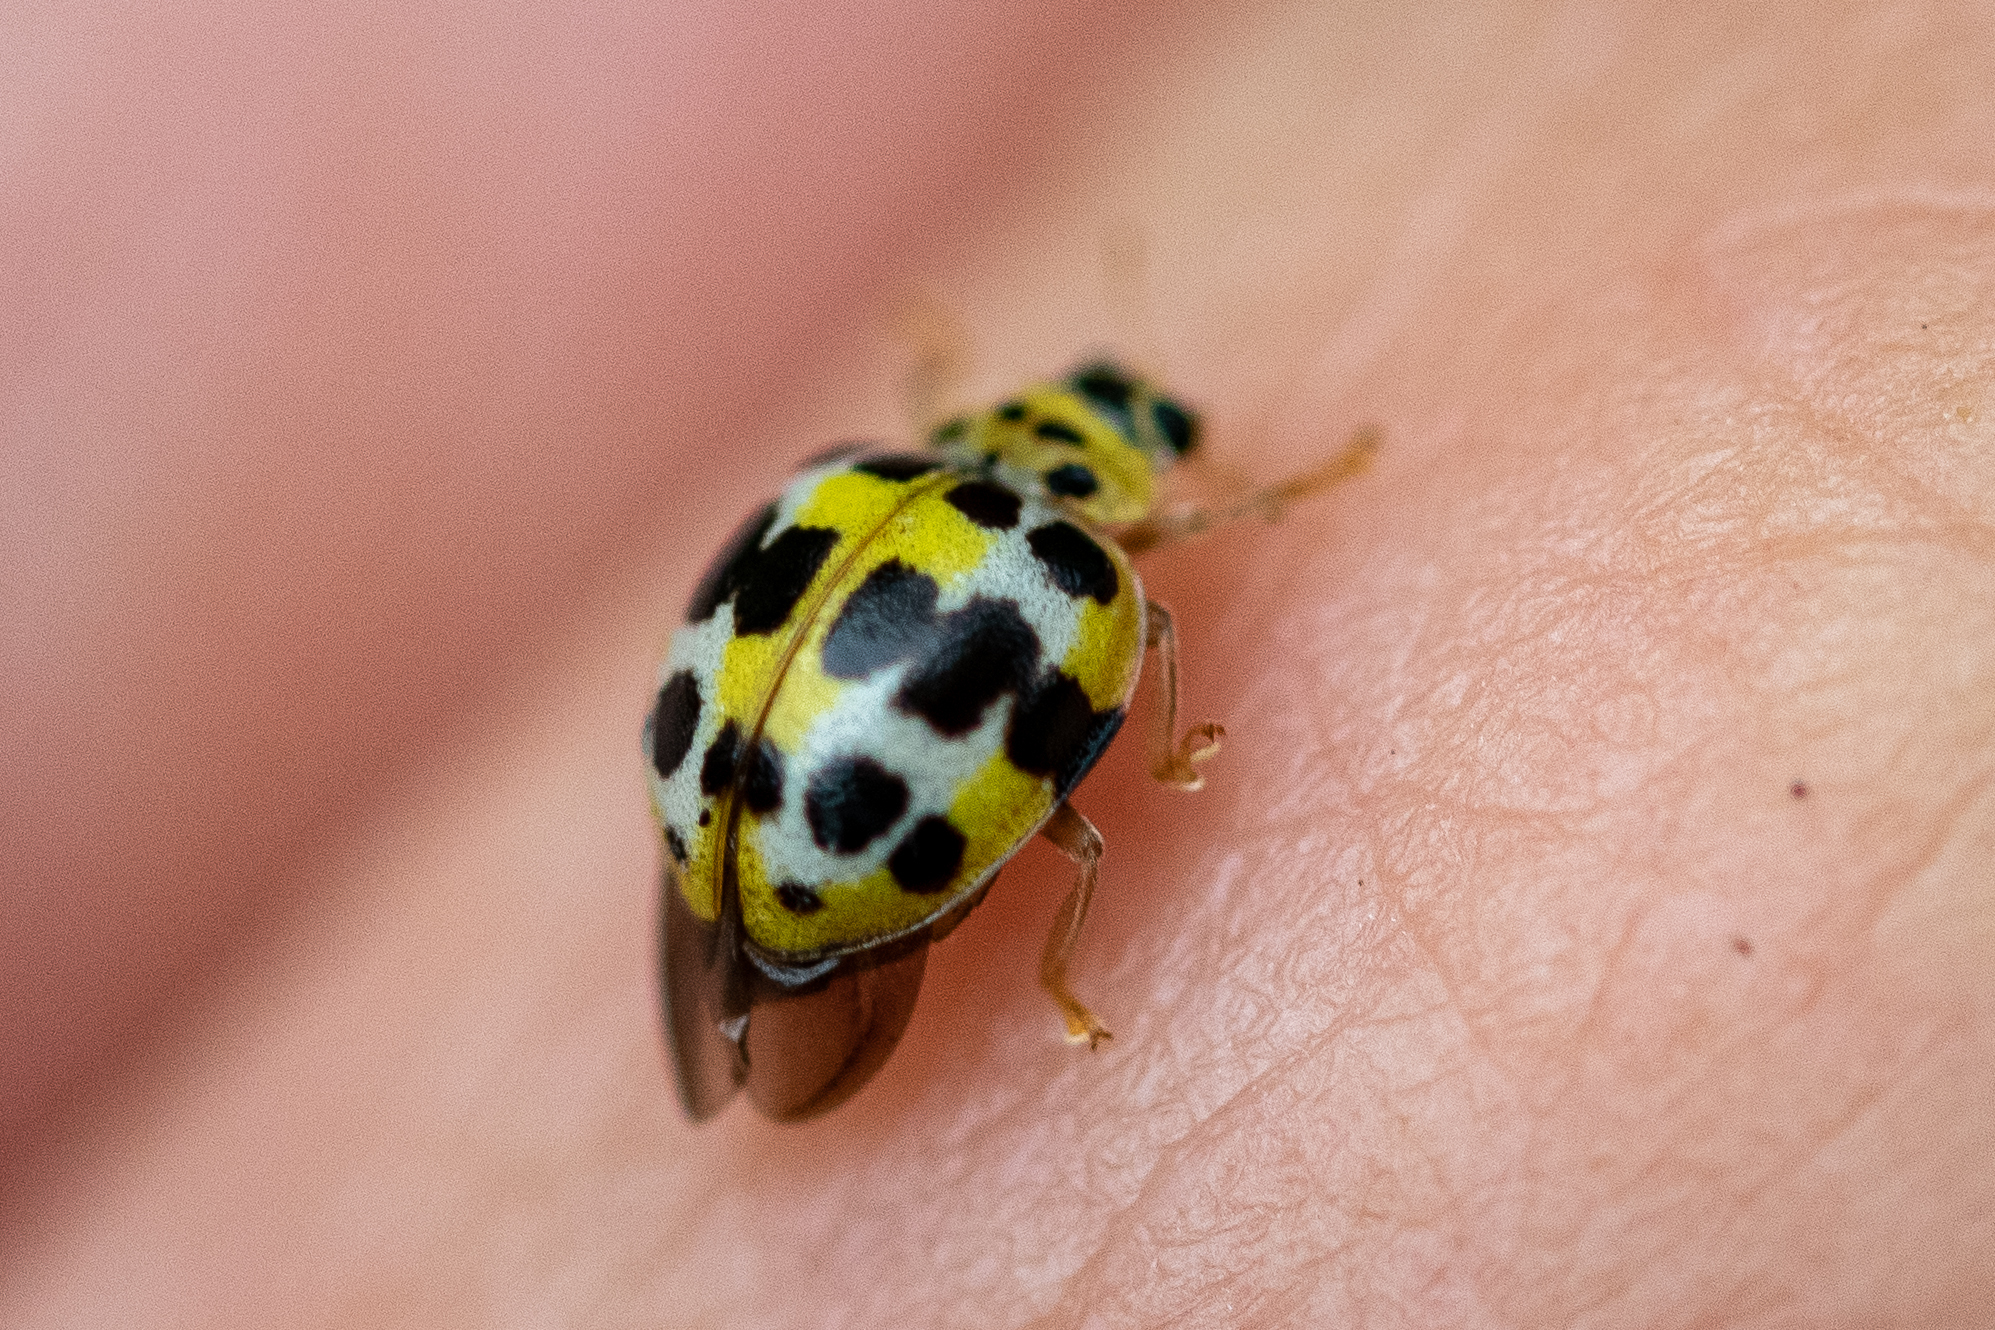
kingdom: Animalia
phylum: Arthropoda
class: Insecta
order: Coleoptera
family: Coccinellidae
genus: Psyllobora
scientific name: Psyllobora variegata
